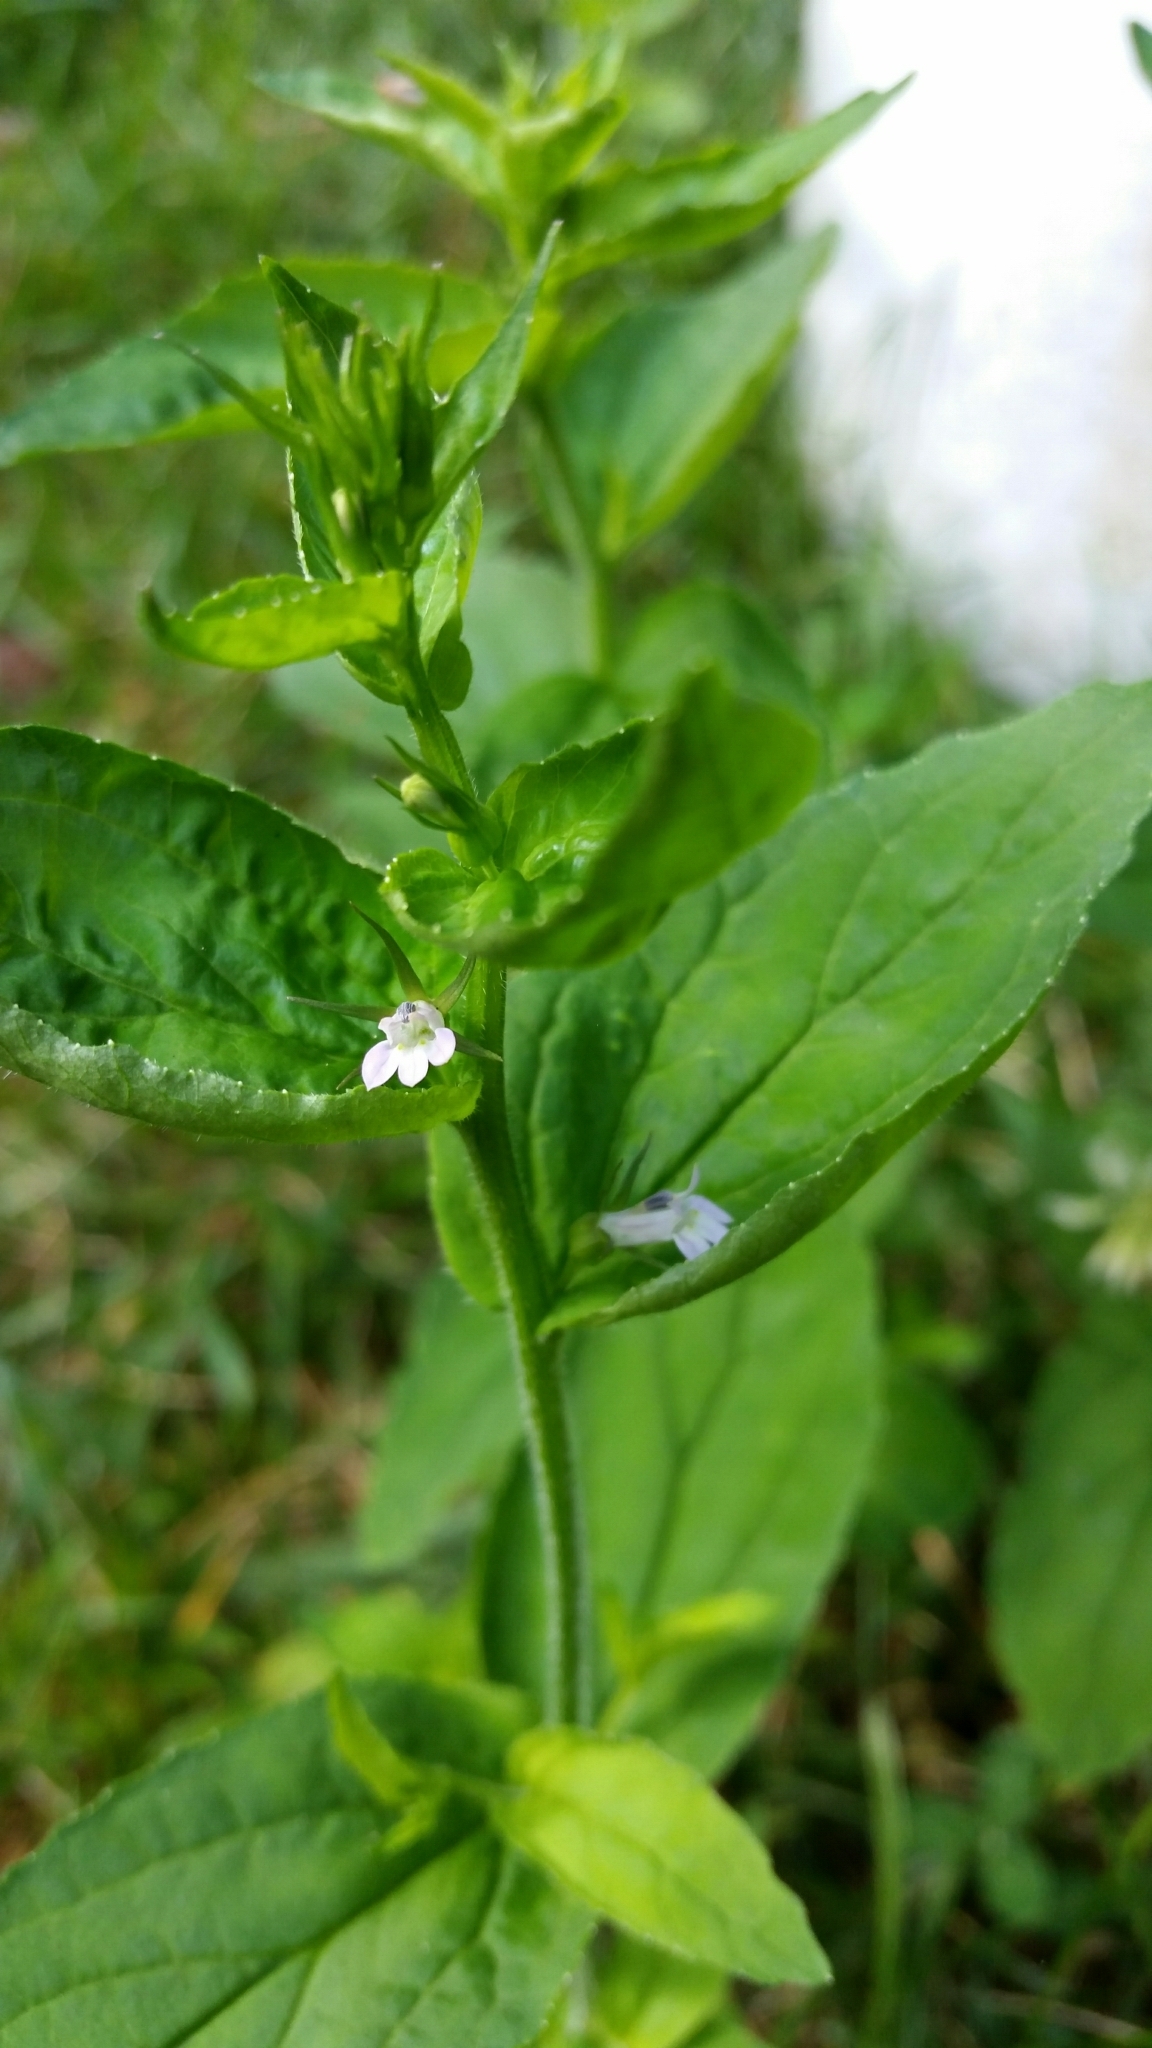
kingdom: Plantae
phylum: Tracheophyta
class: Magnoliopsida
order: Asterales
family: Campanulaceae
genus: Lobelia
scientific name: Lobelia inflata
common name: Indian tobacco
